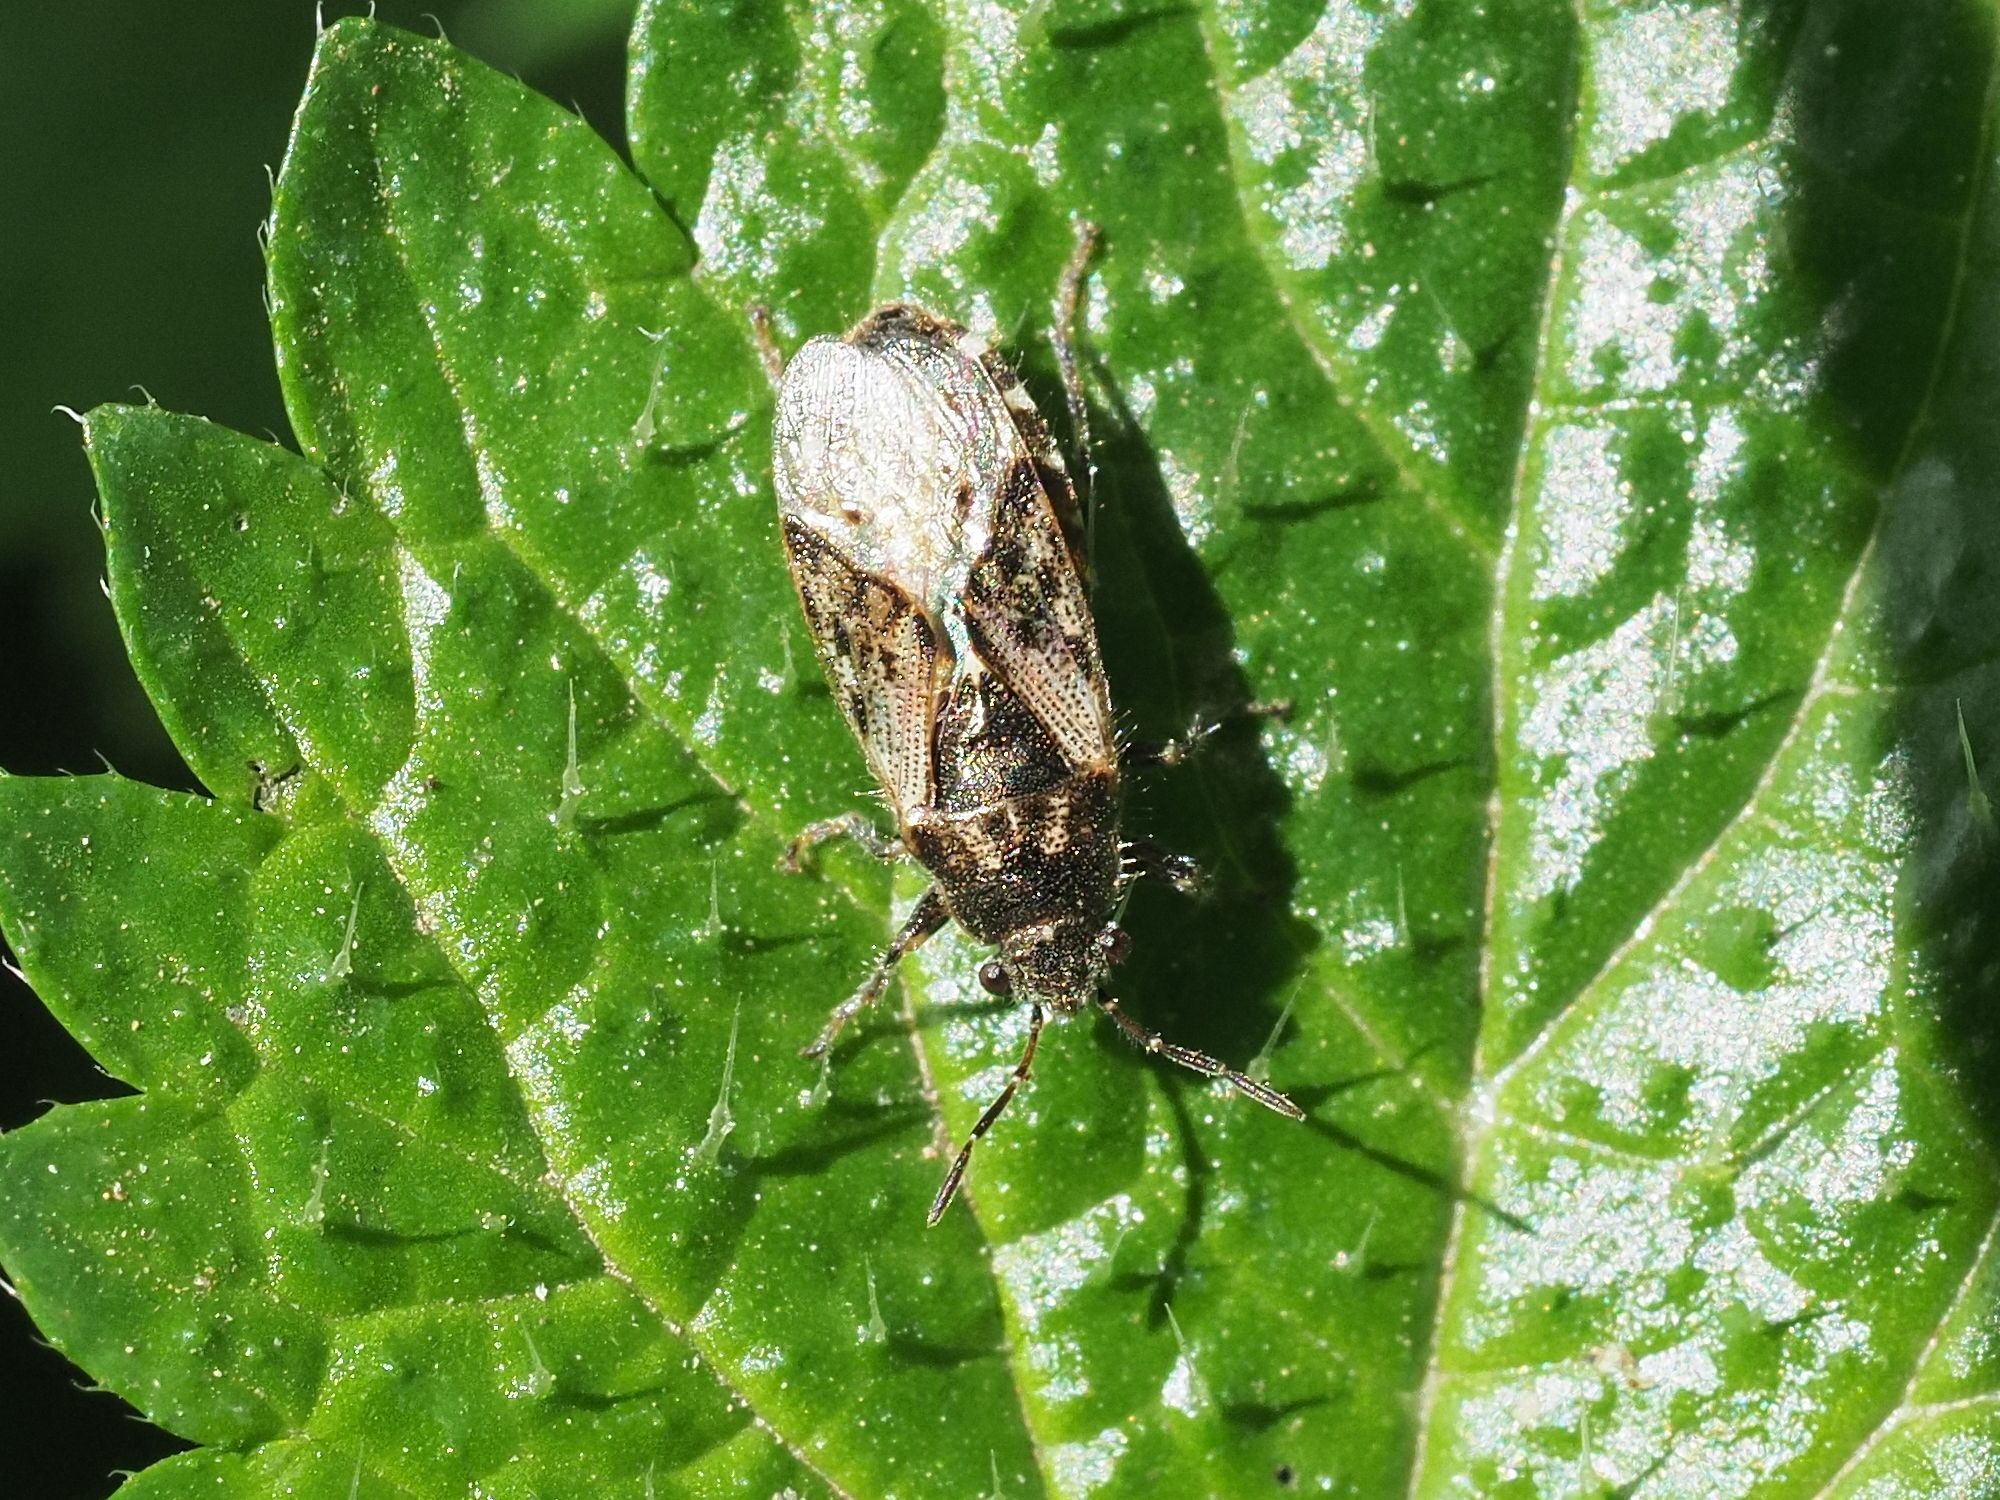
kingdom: Animalia
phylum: Arthropoda
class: Insecta
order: Hemiptera
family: Heterogastridae
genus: Heterogaster
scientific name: Heterogaster urticae
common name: Seed bug
